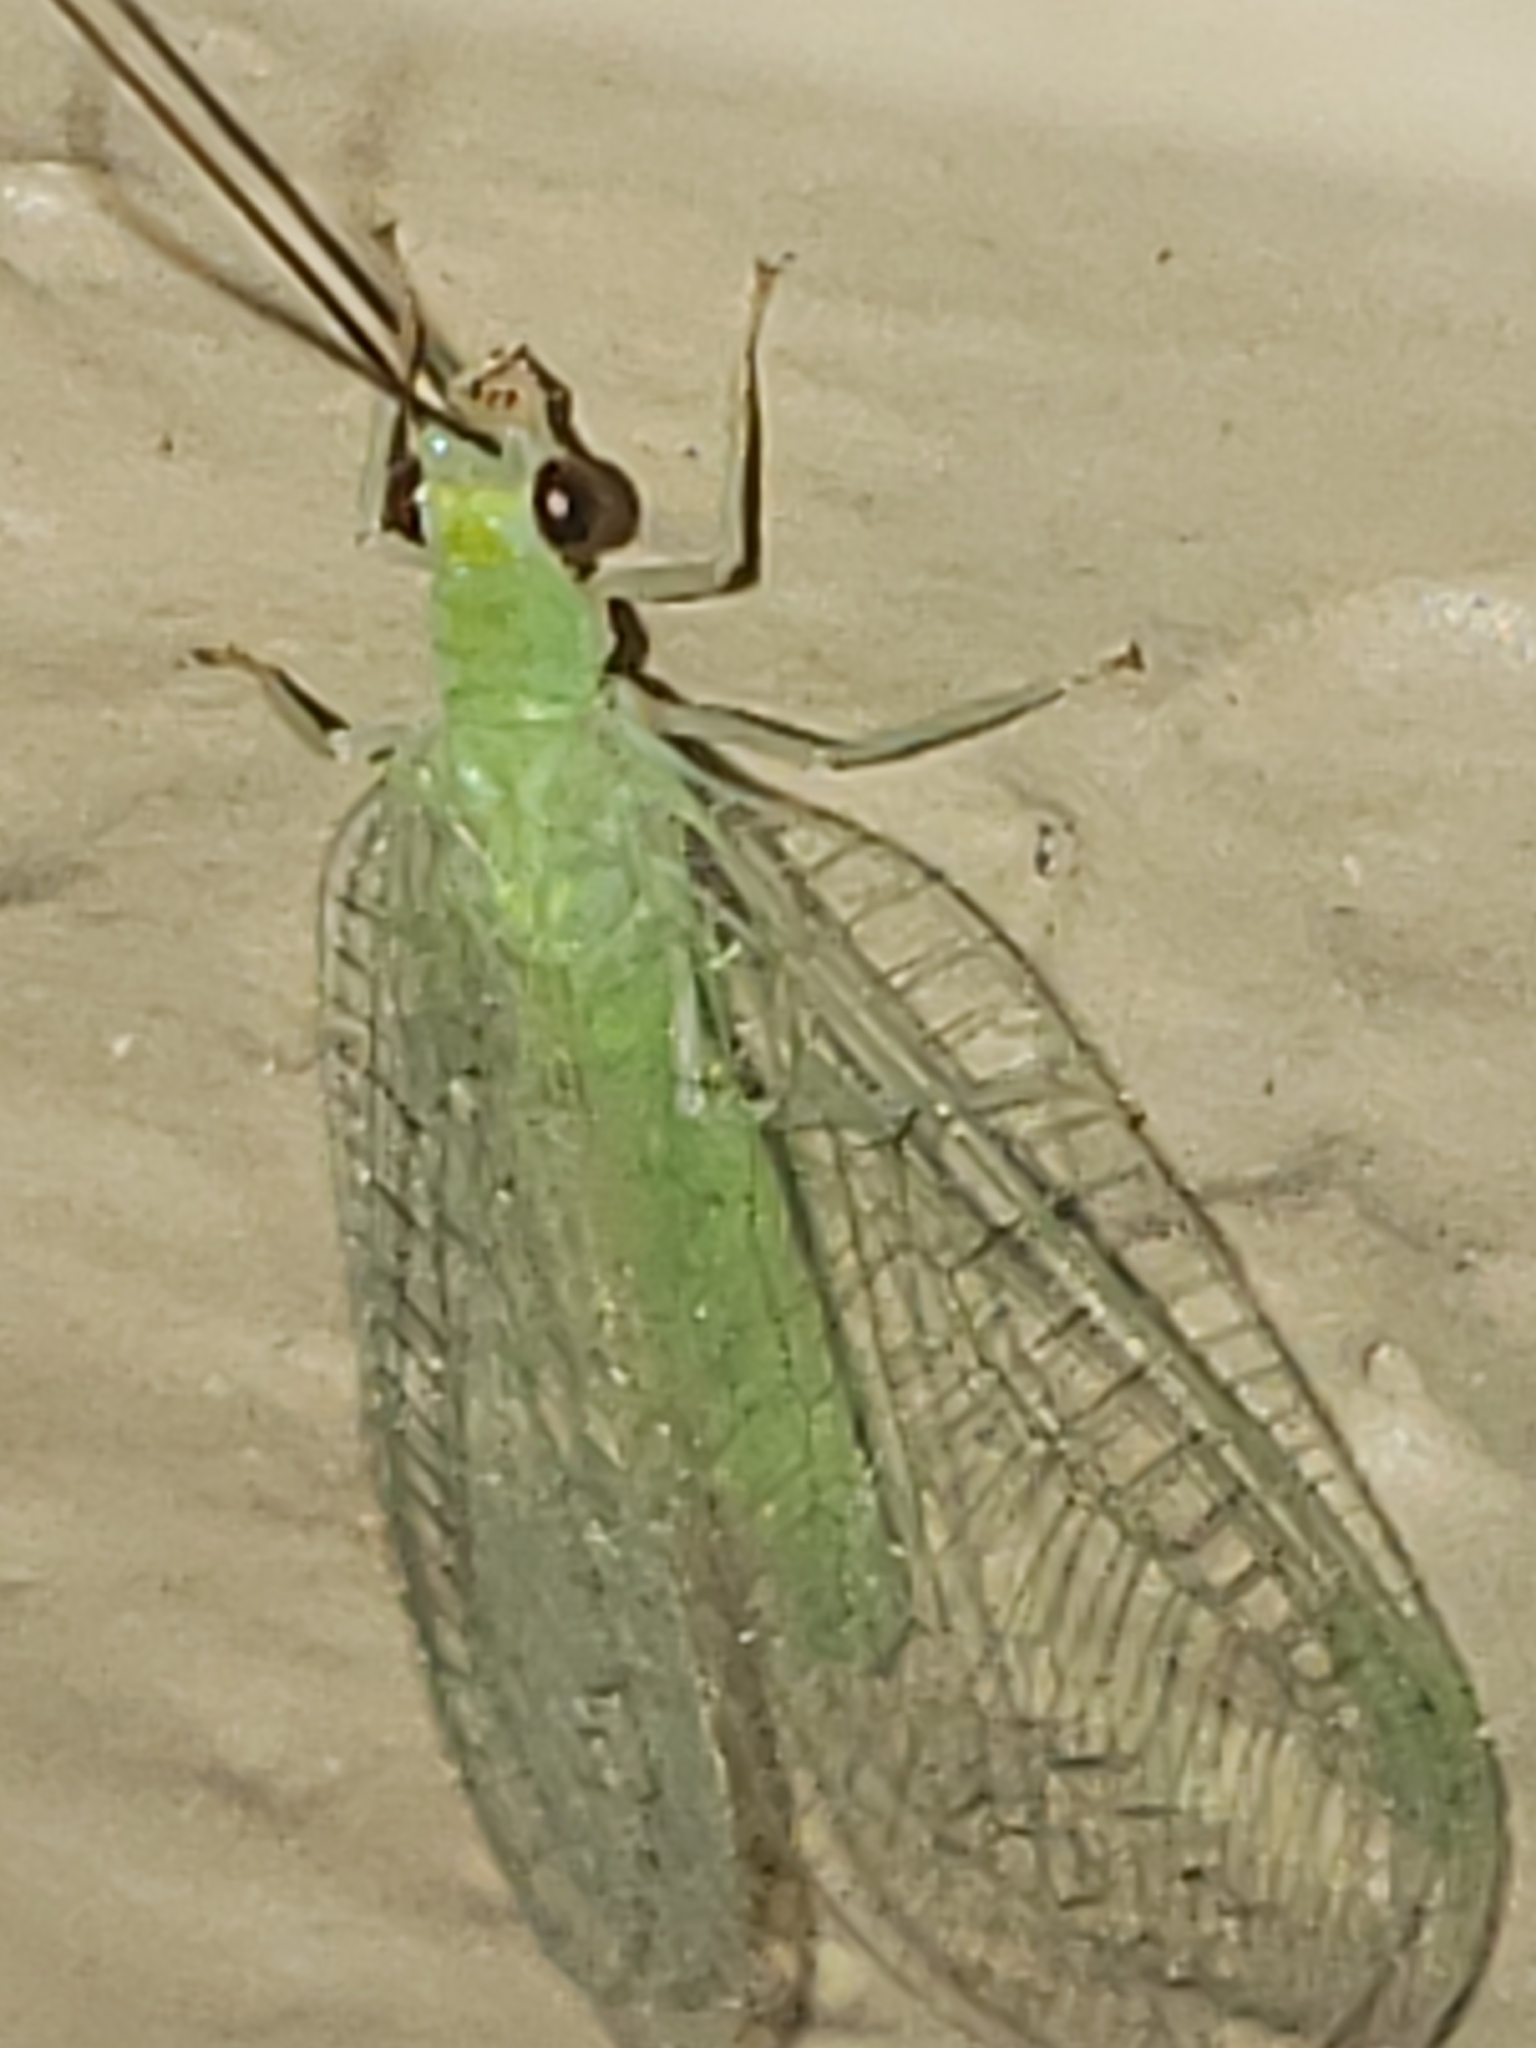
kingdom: Animalia
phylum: Arthropoda
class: Insecta
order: Neuroptera
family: Chrysopidae
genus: Chrysopa
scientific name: Chrysopa nigricornis
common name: Black-horned green lacewing
